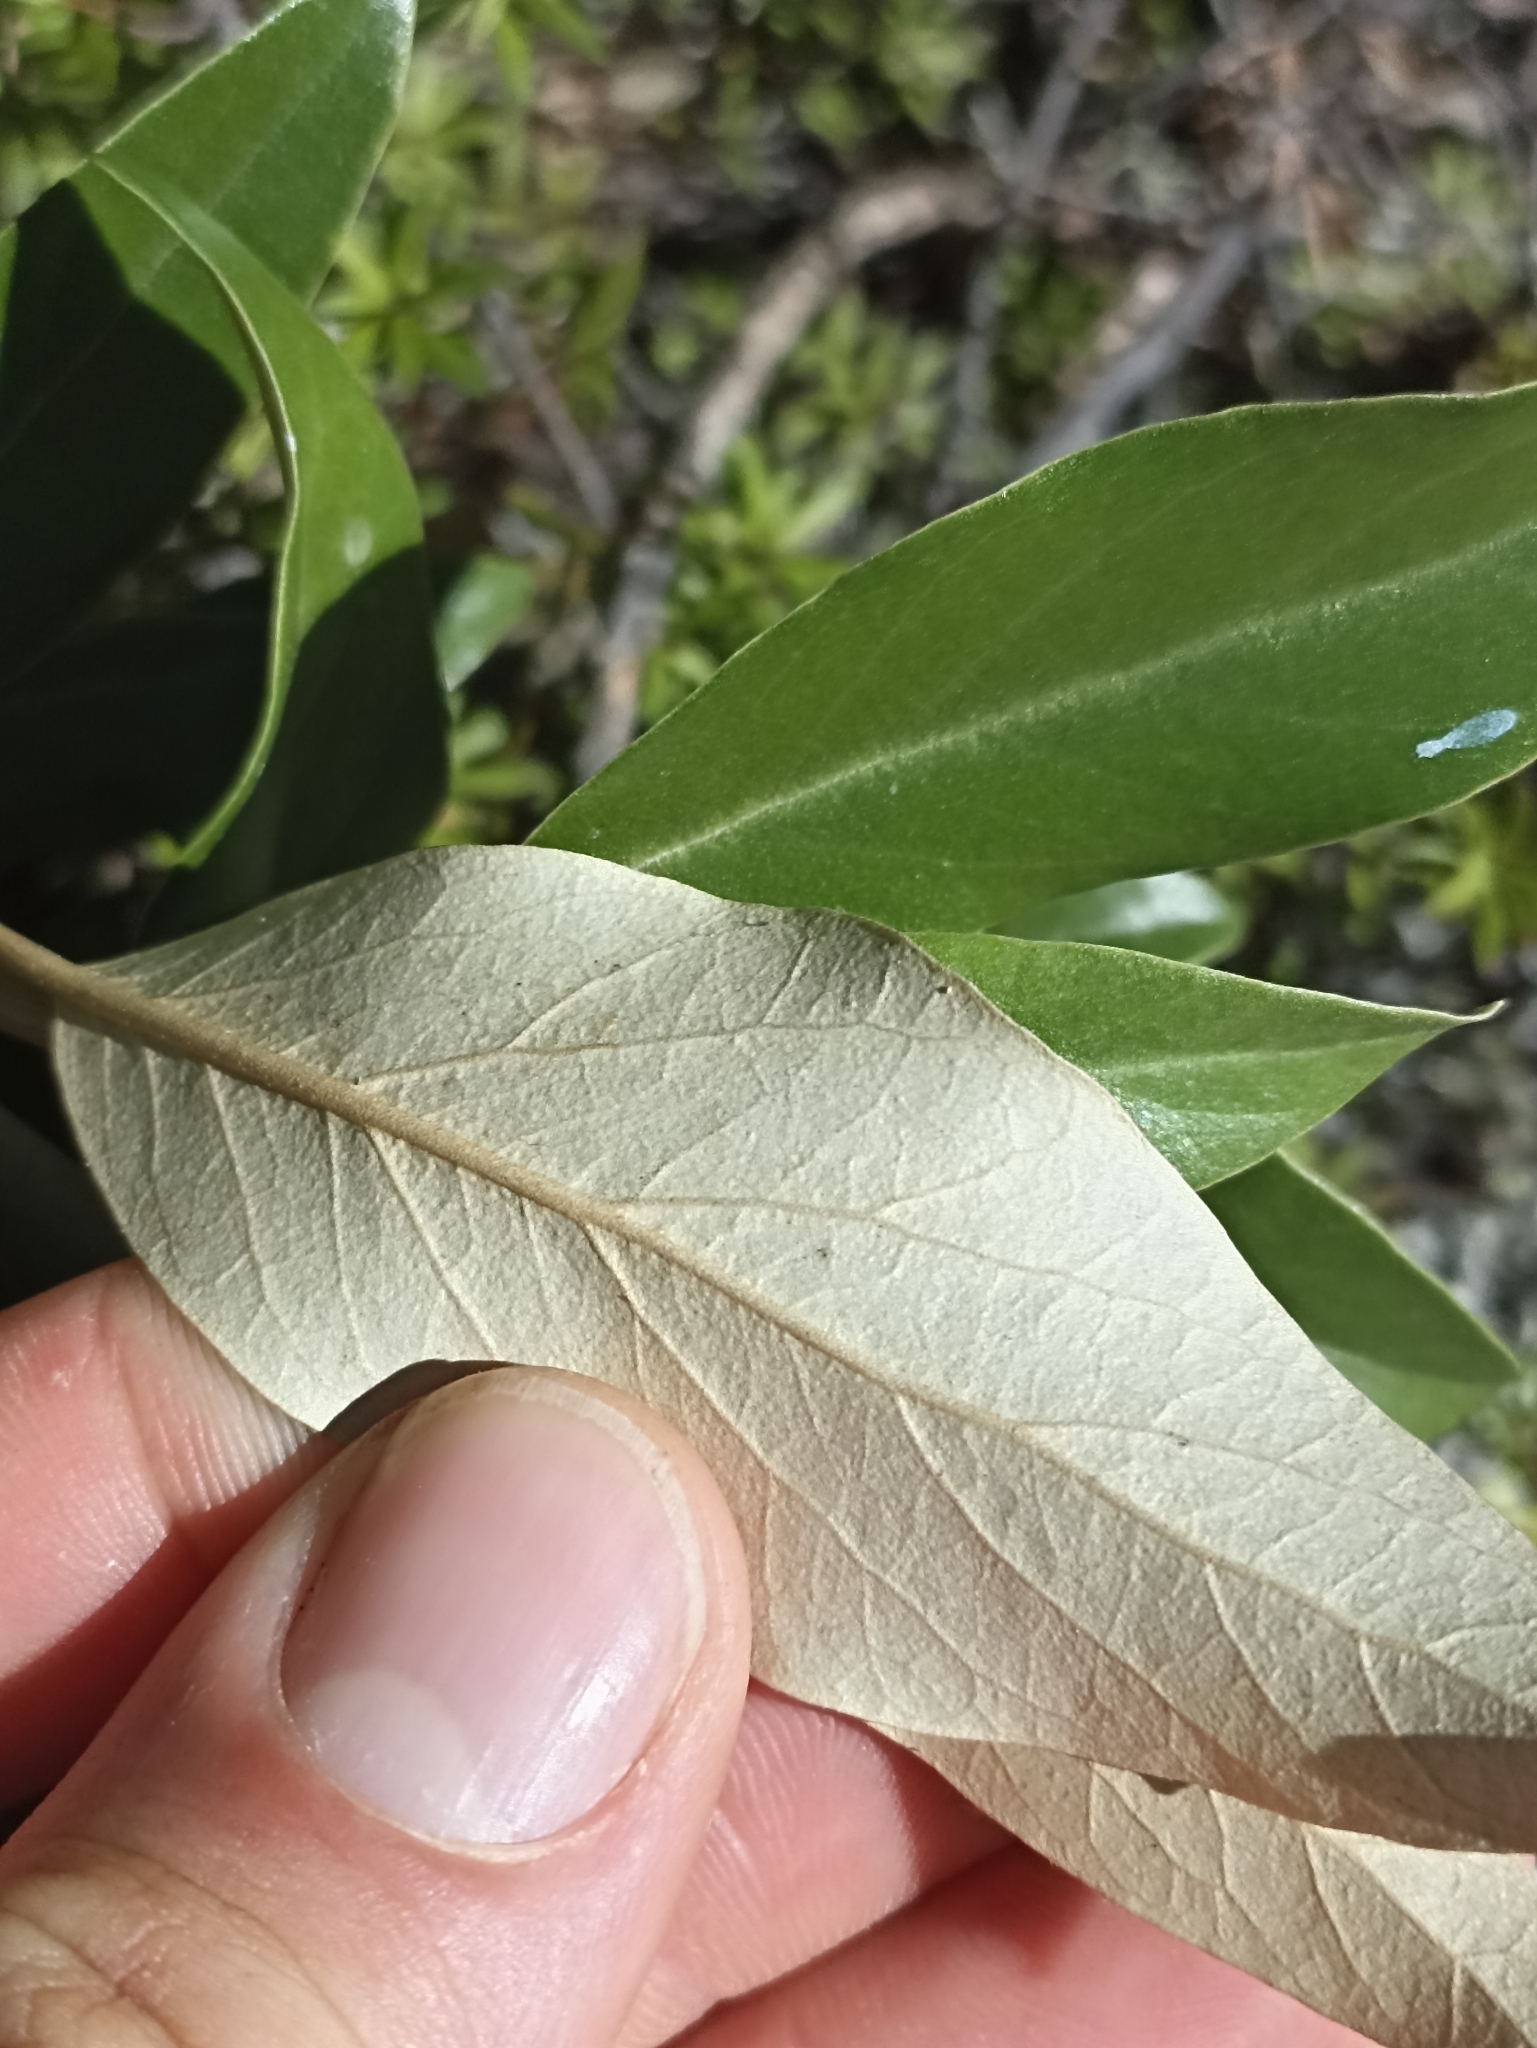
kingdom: Plantae
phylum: Tracheophyta
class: Magnoliopsida
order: Asterales
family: Asteraceae
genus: Olearia
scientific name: Olearia avicenniifolia
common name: Mangrove-leaf daisybush
